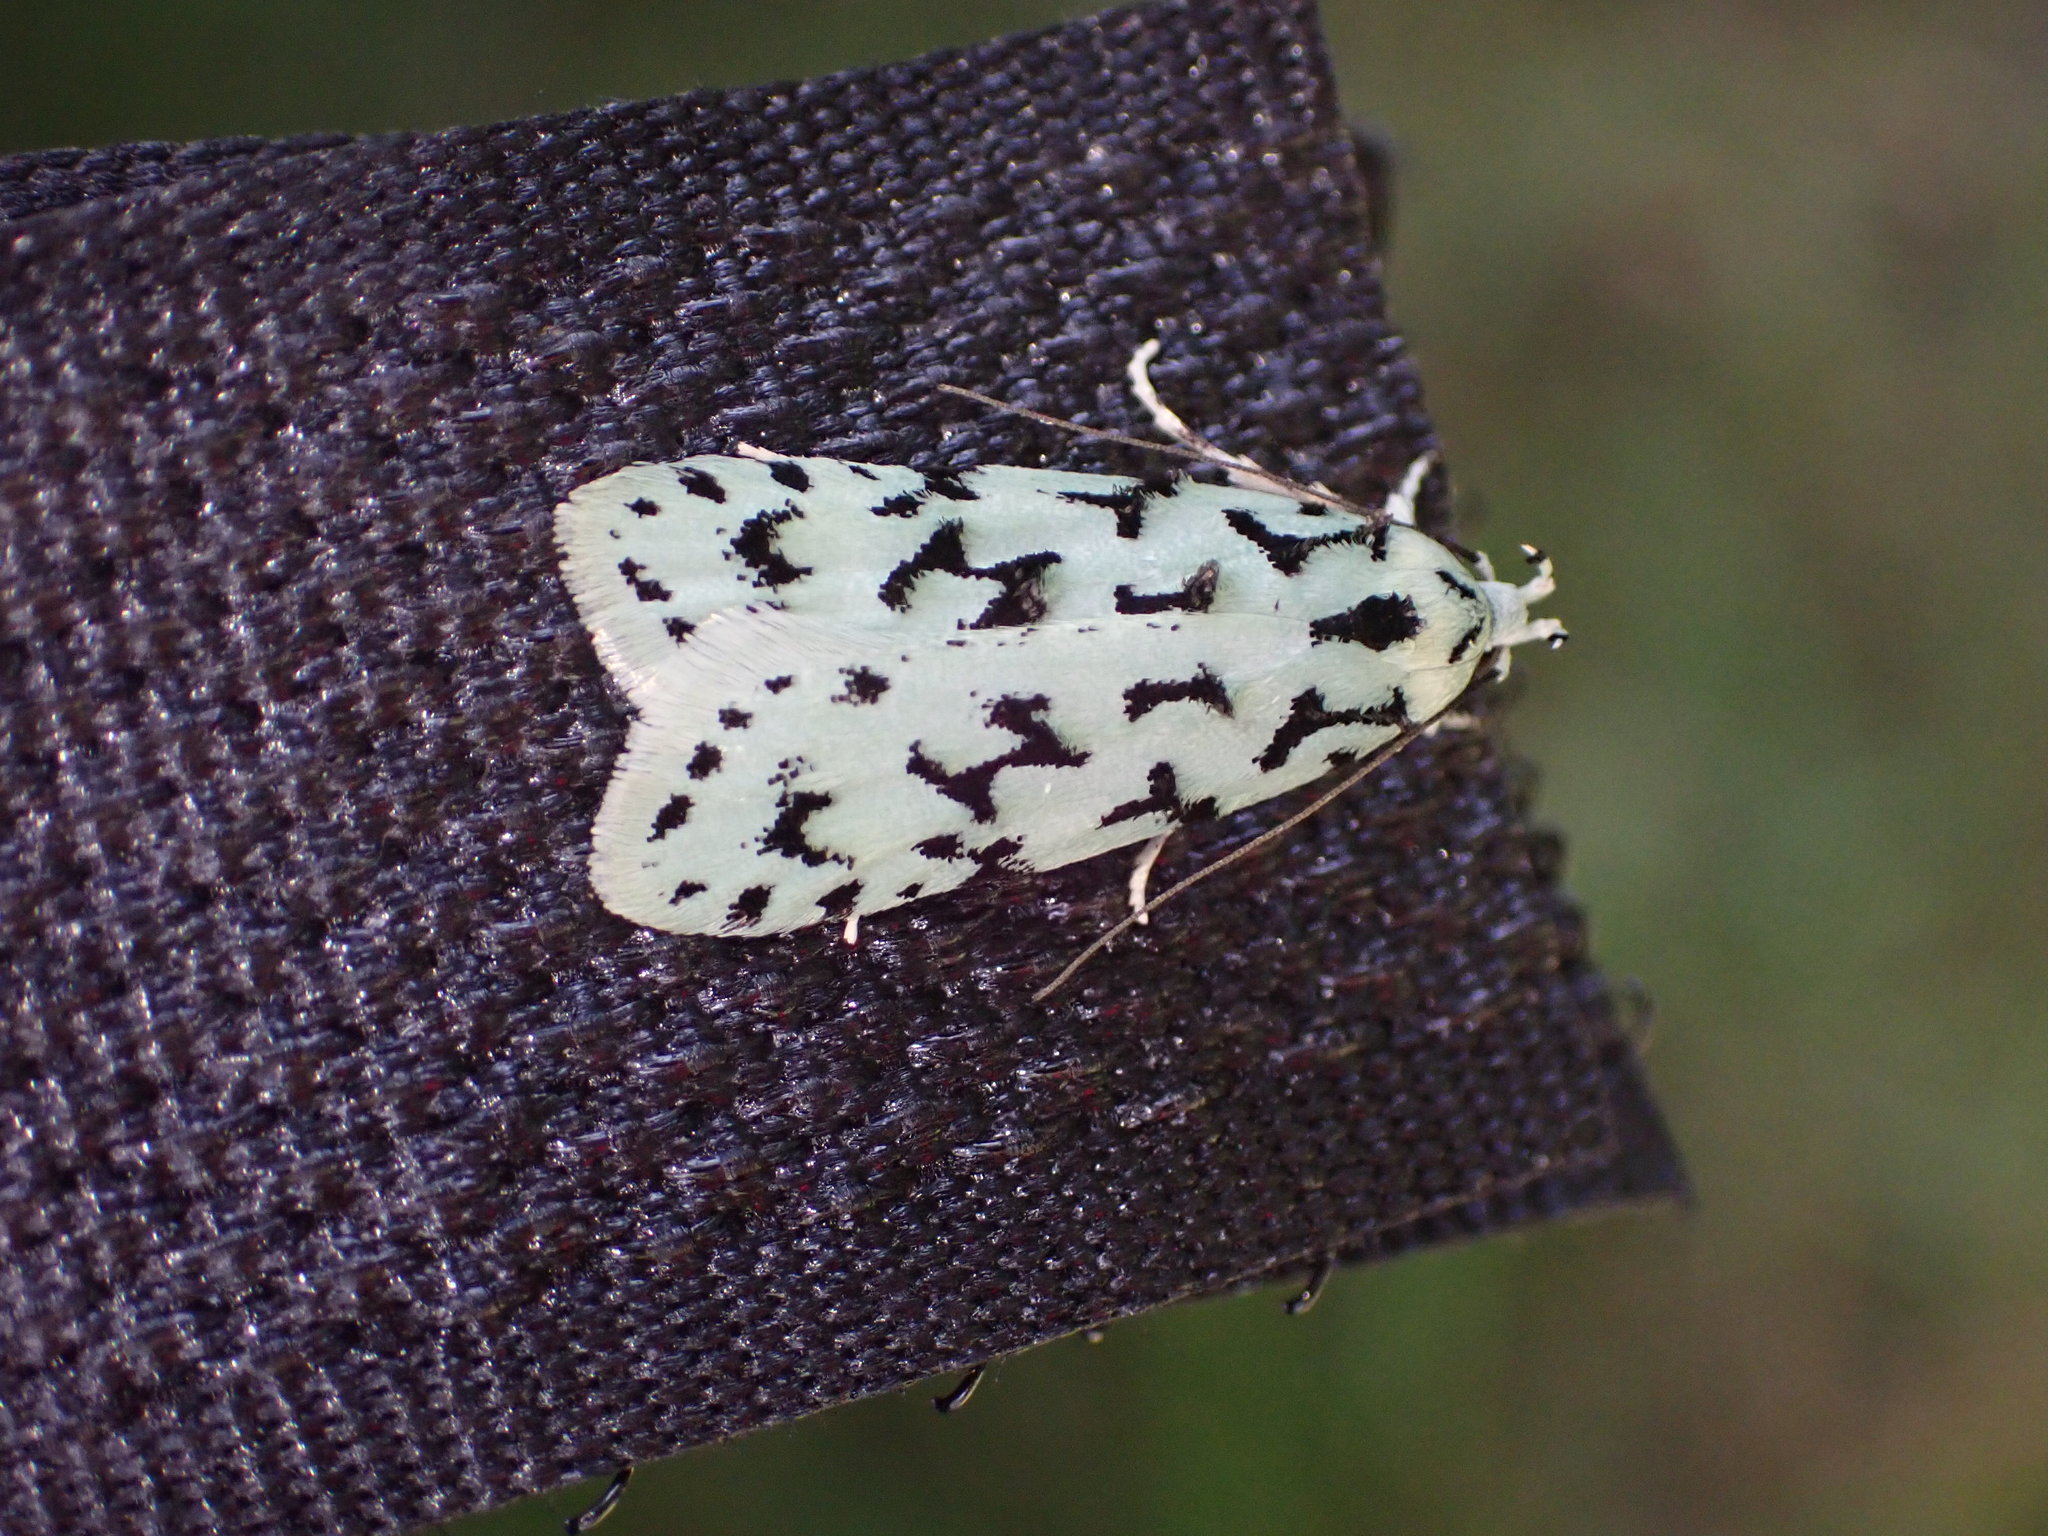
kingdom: Animalia
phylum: Arthropoda
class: Insecta
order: Lepidoptera
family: Oecophoridae
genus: Izatha
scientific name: Izatha huttoni
